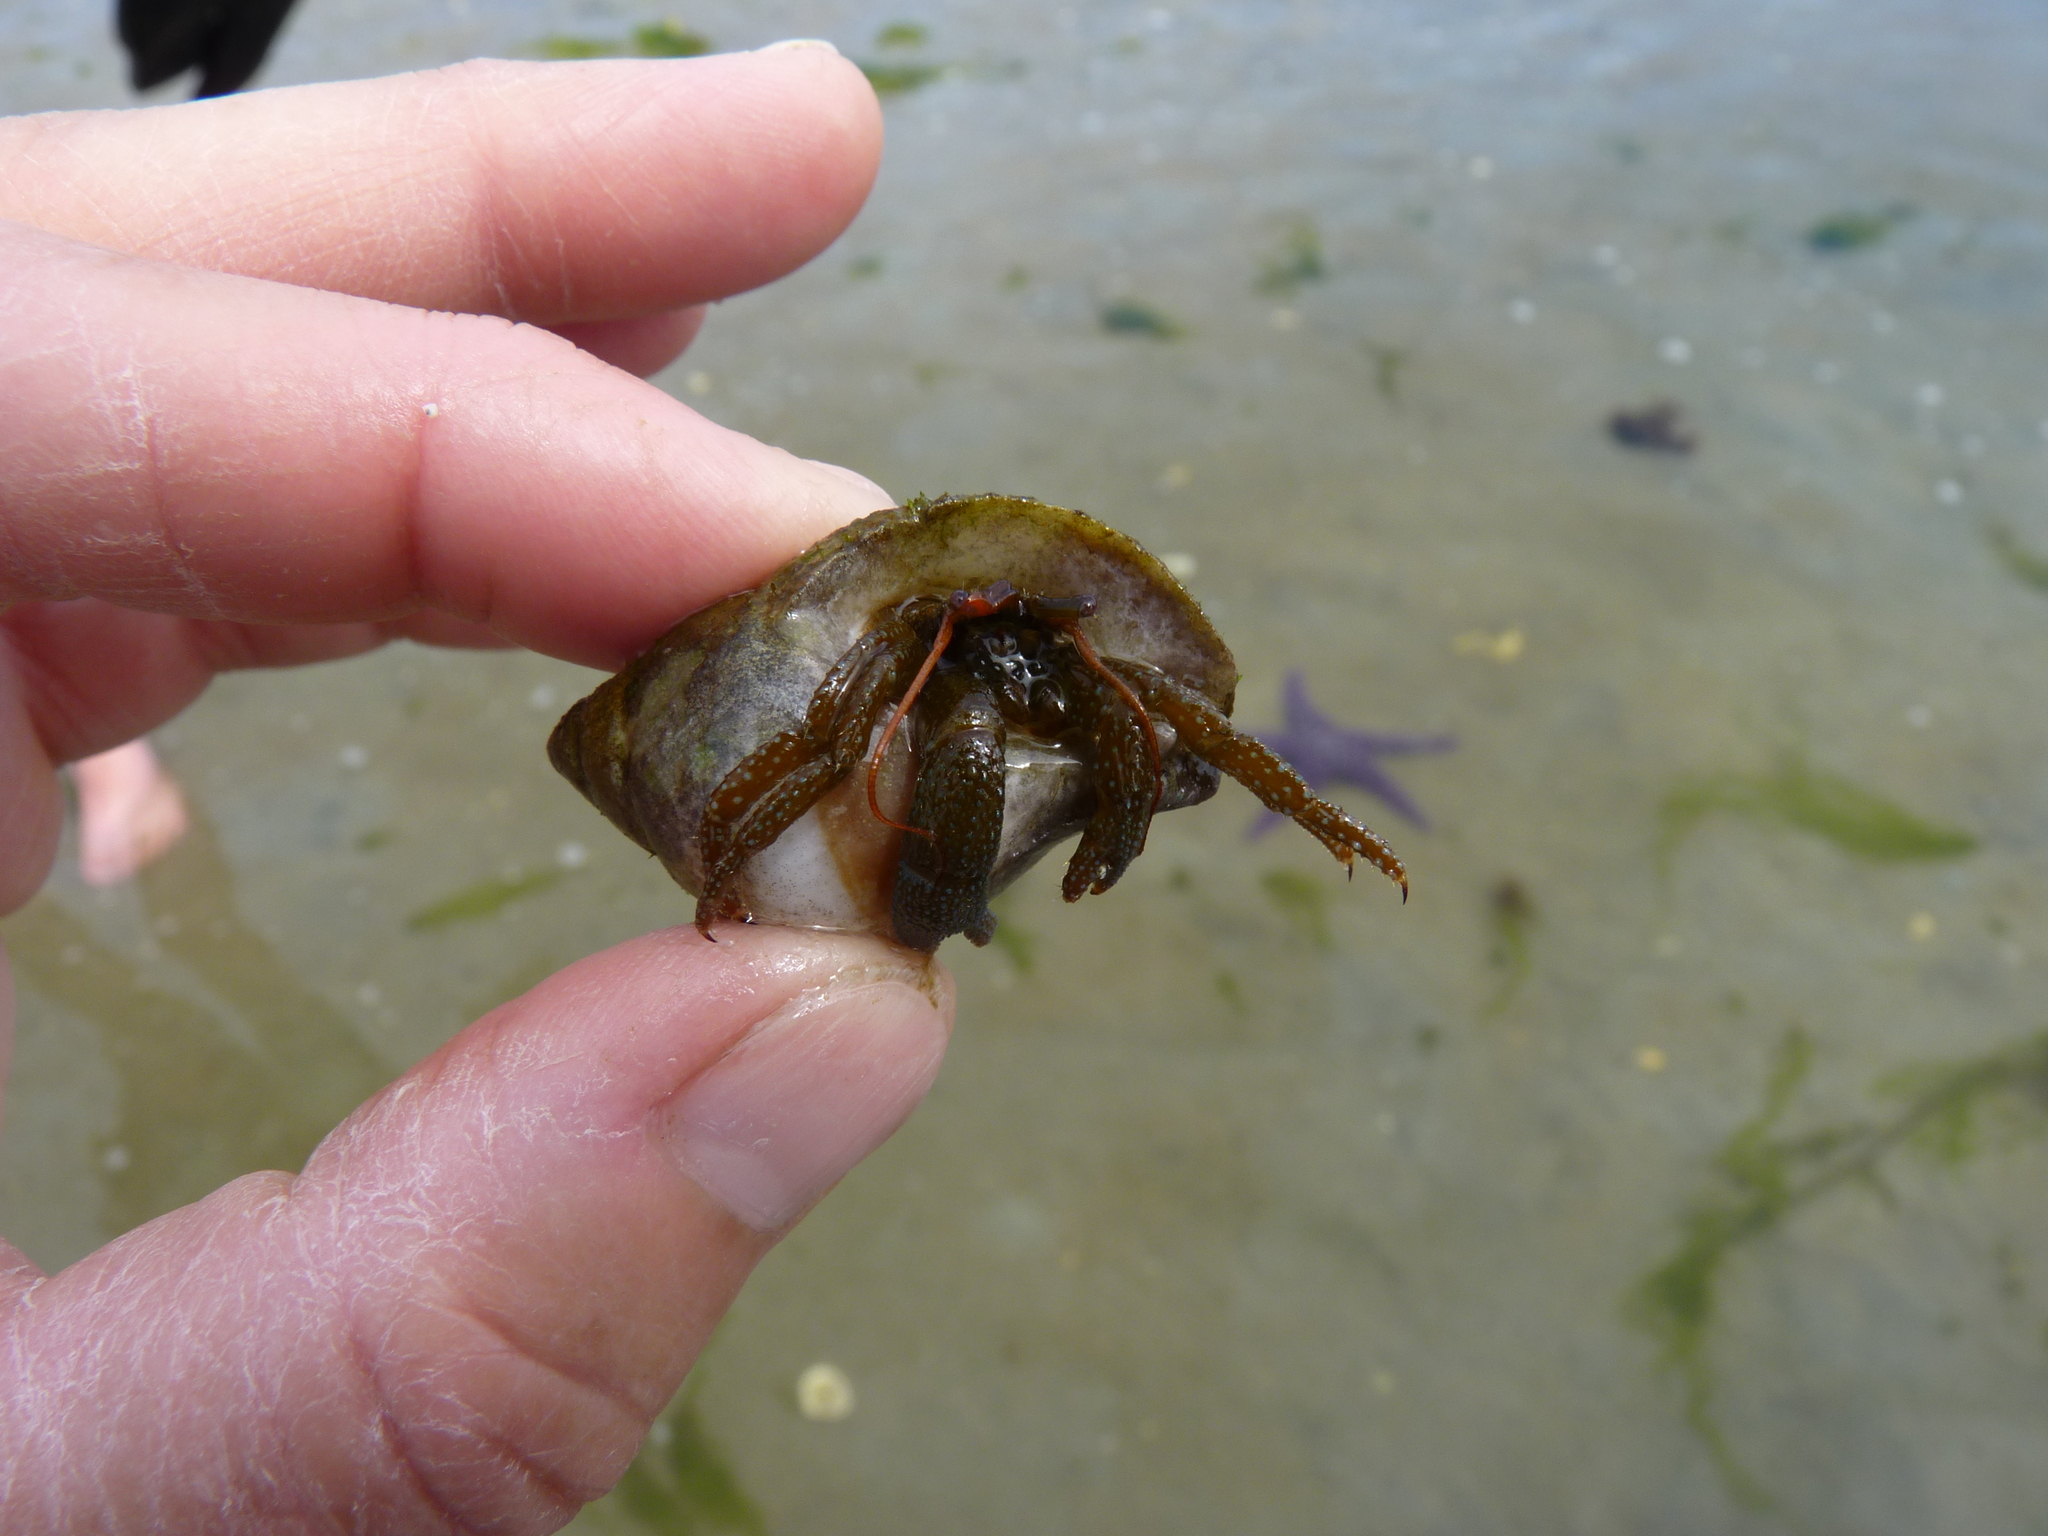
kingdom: Animalia
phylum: Arthropoda
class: Malacostraca
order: Decapoda
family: Paguridae
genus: Pagurus
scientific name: Pagurus granosimanus
